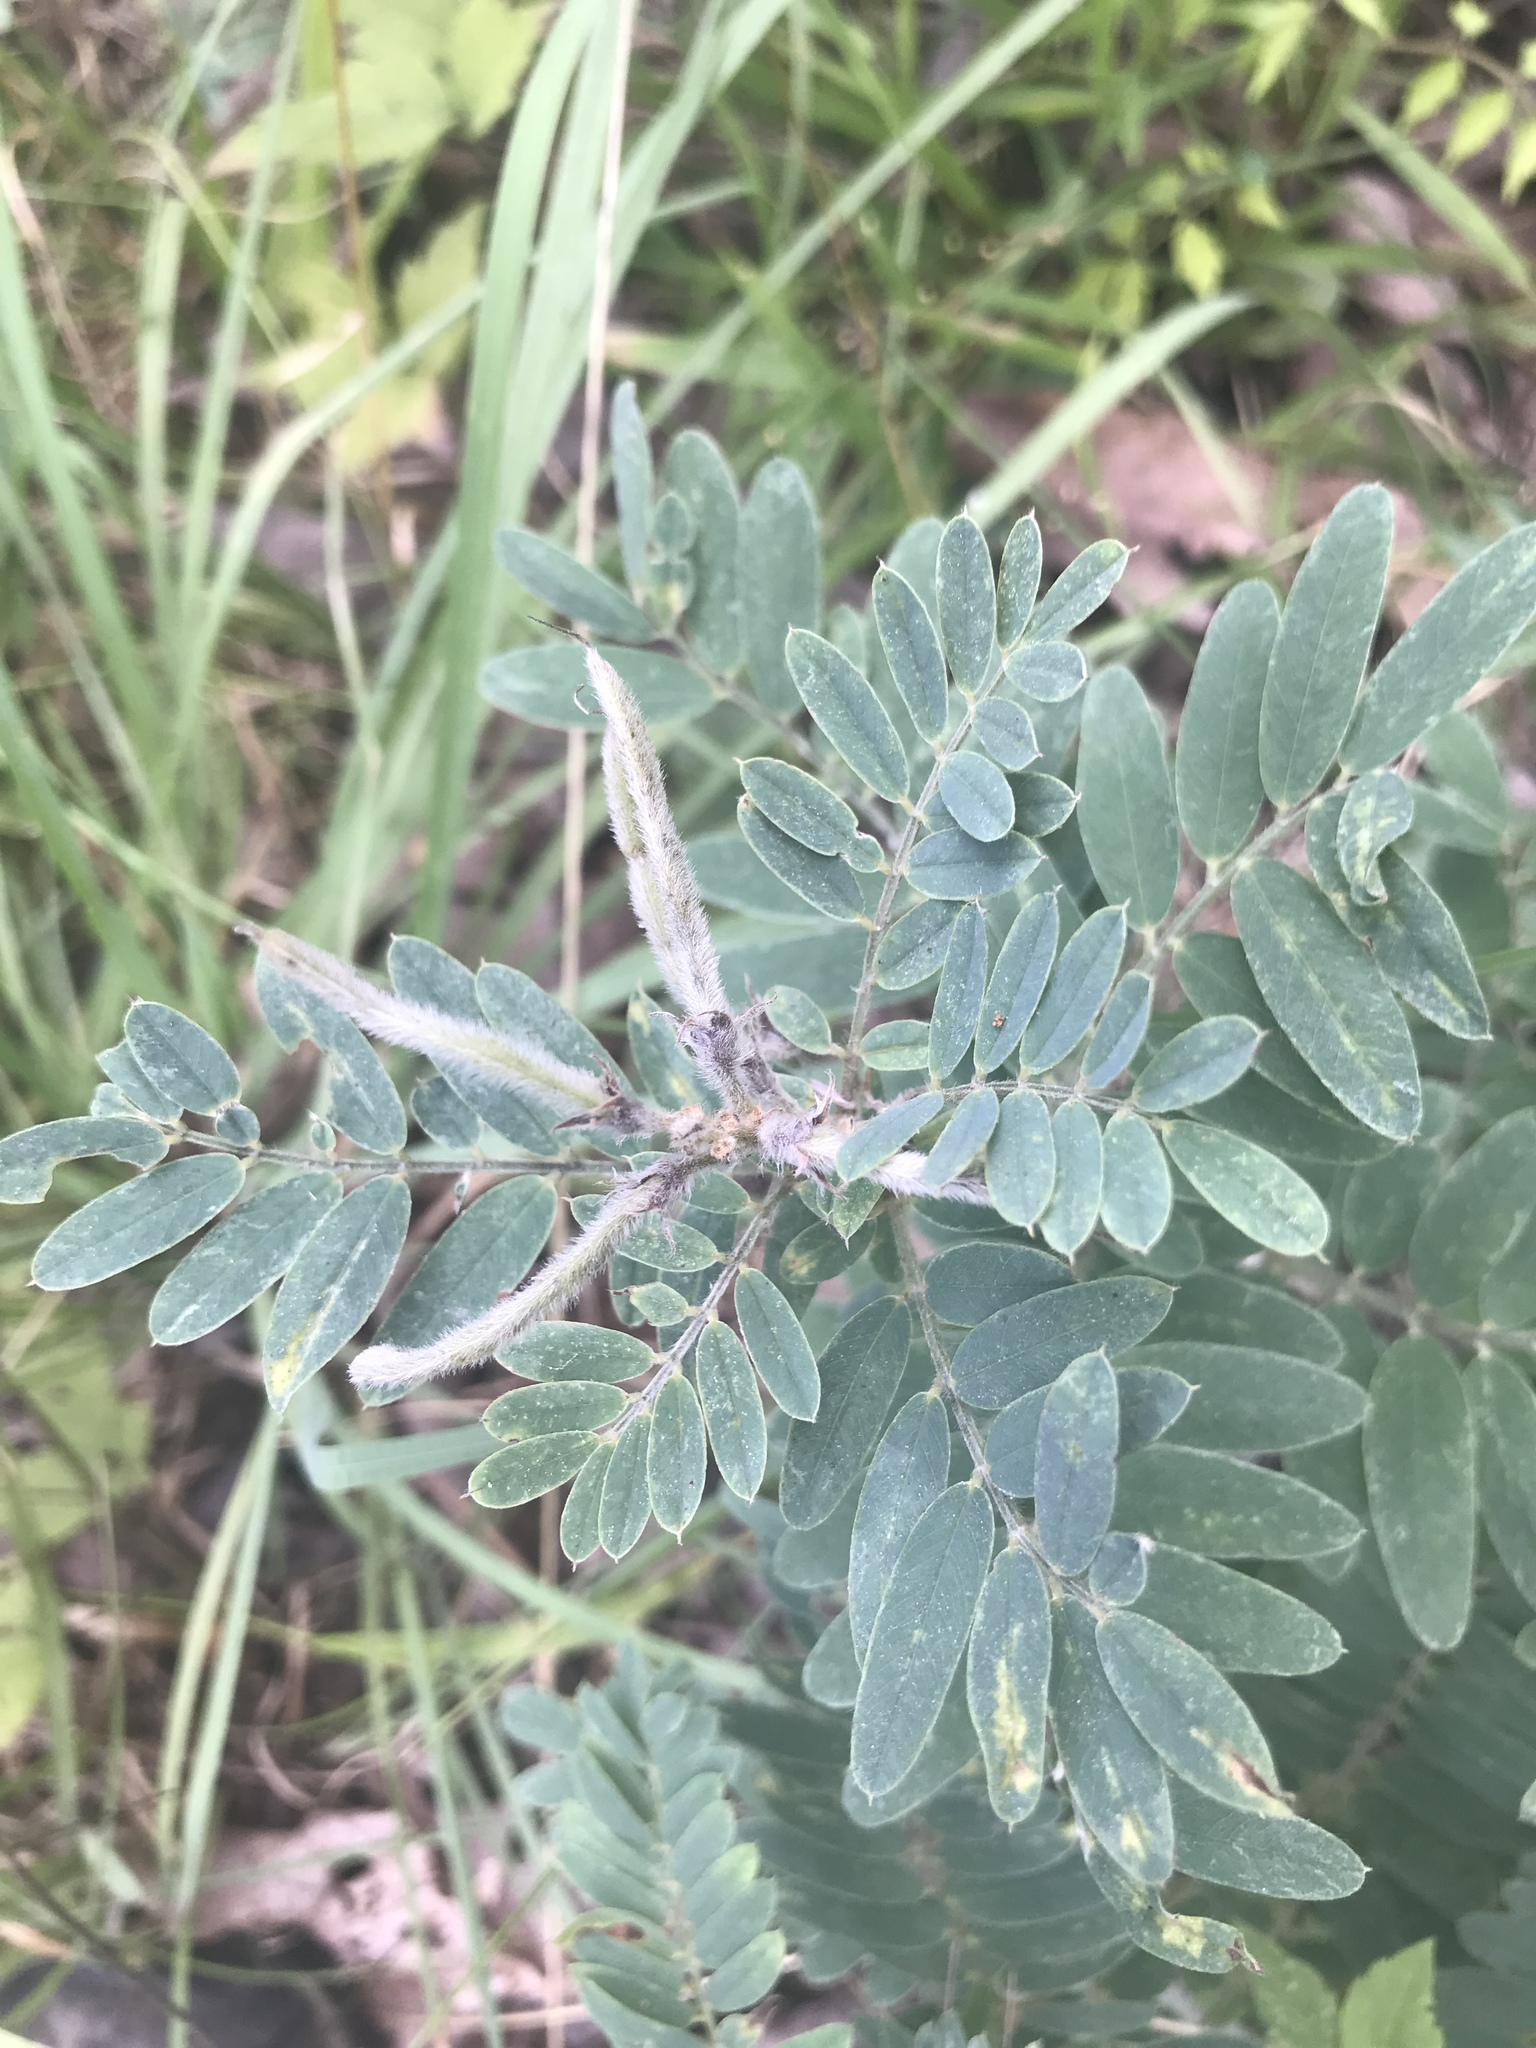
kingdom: Plantae
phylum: Tracheophyta
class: Magnoliopsida
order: Fabales
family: Fabaceae
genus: Tephrosia
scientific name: Tephrosia virginiana
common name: Rabbit-pea
